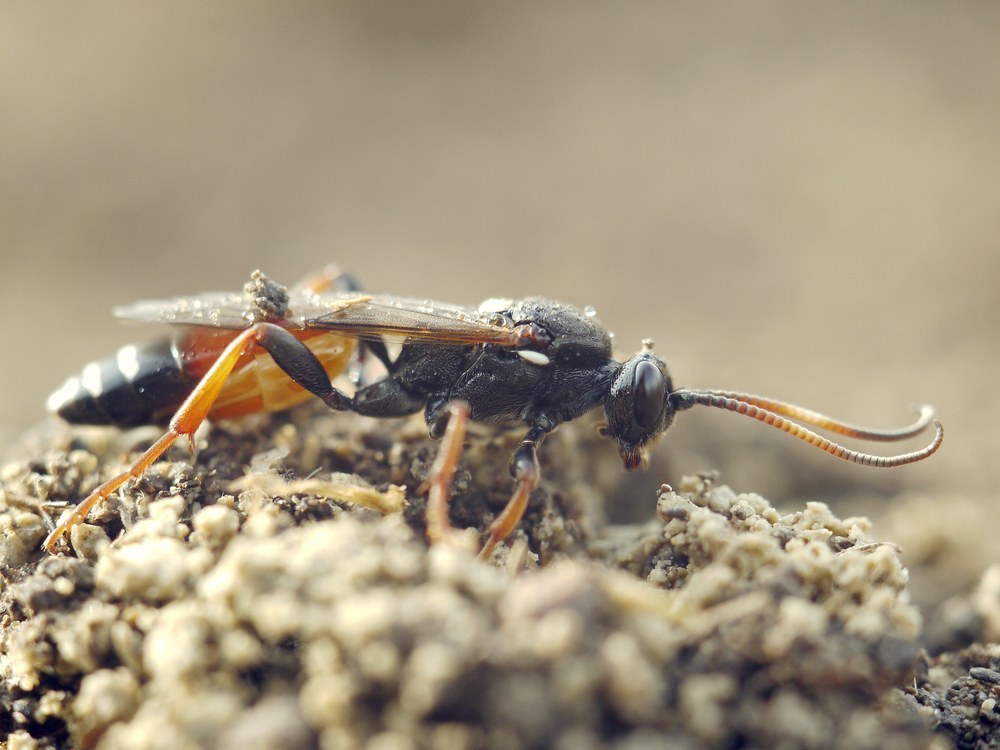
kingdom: Animalia
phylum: Arthropoda
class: Insecta
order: Hymenoptera
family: Ichneumonidae
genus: Spilichneumon
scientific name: Spilichneumon occisorius
